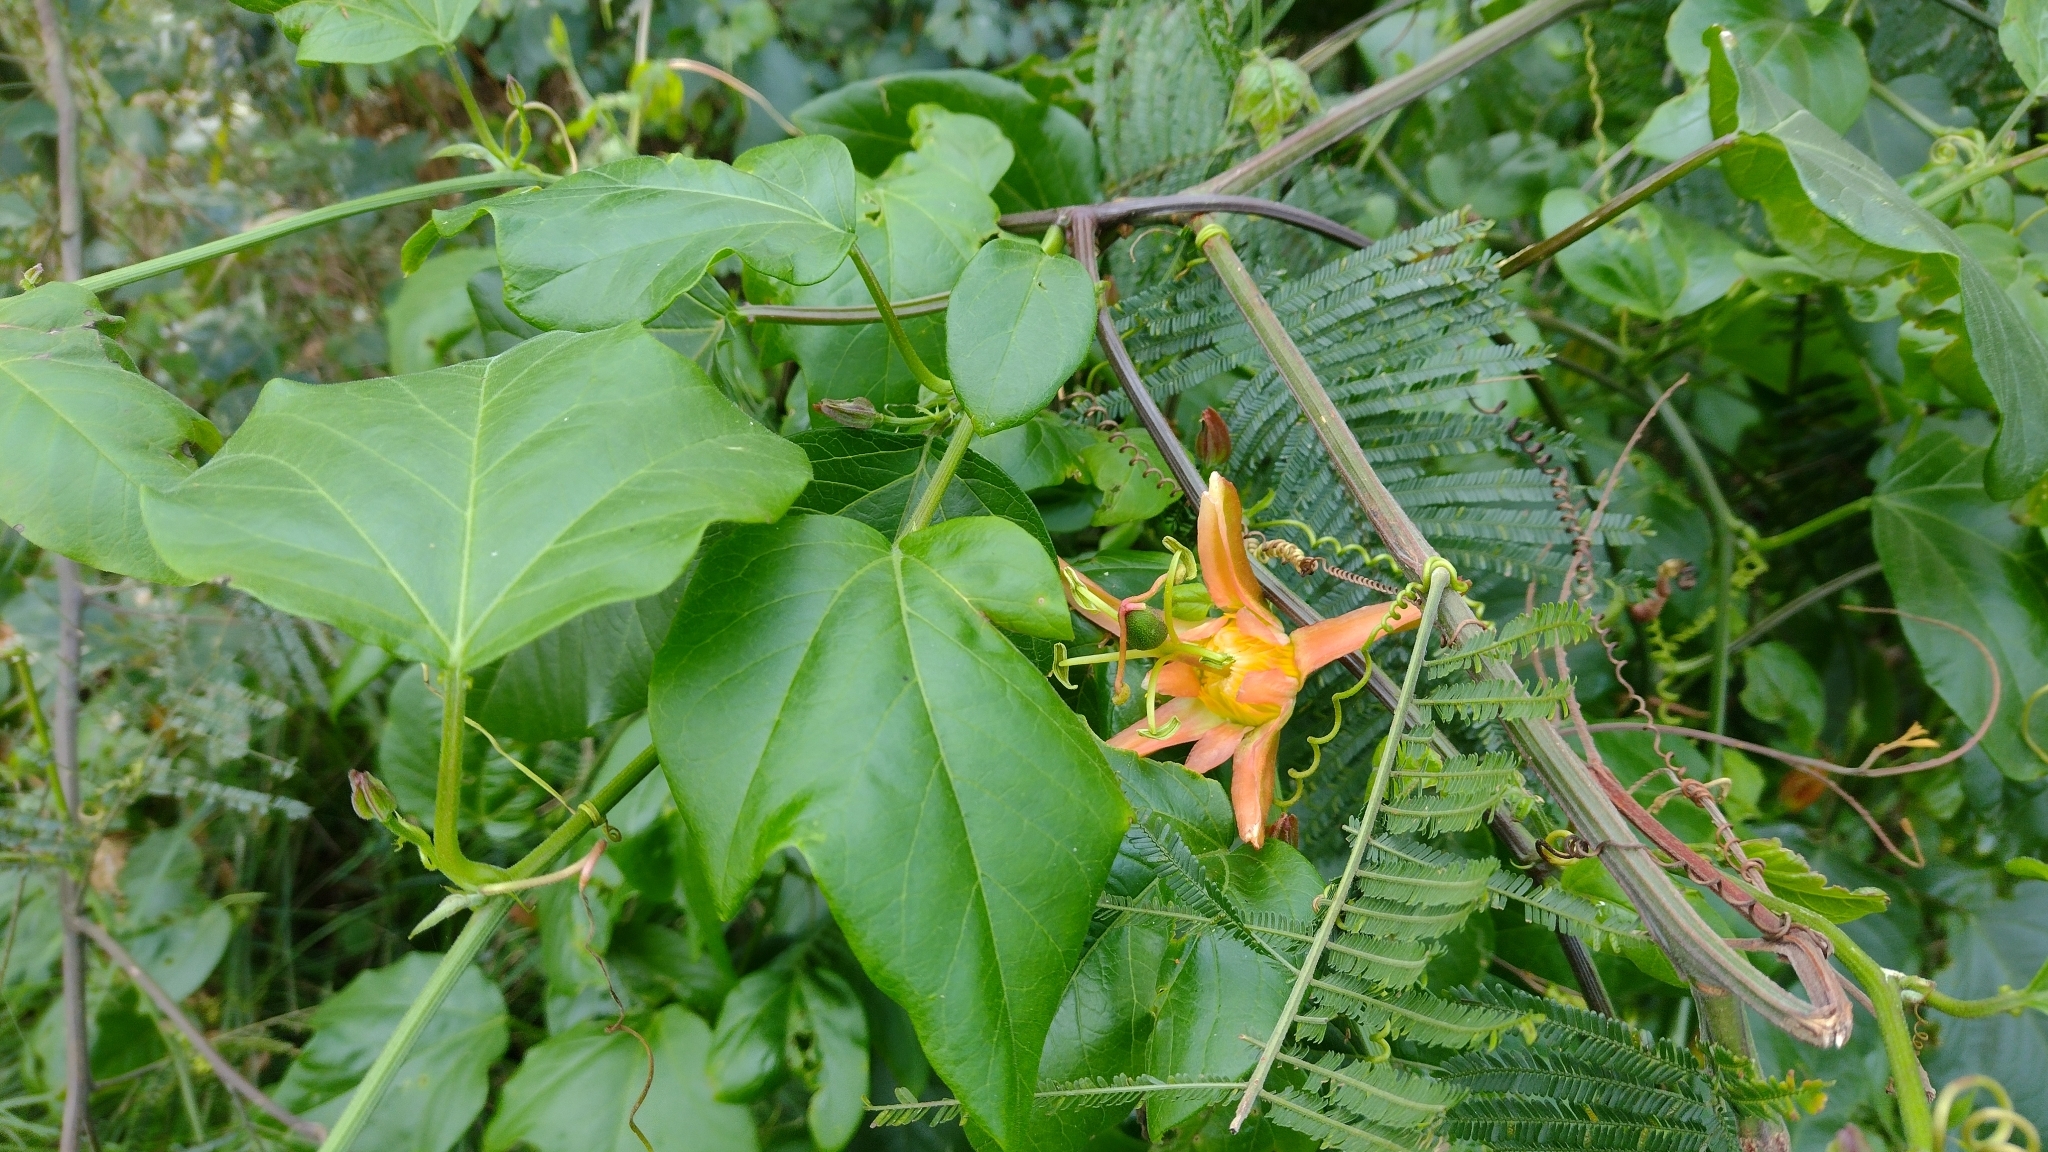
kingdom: Plantae
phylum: Tracheophyta
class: Magnoliopsida
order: Malpighiales
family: Passifloraceae
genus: Passiflora
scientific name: Passiflora herbertiana
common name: Yellow passionflower
